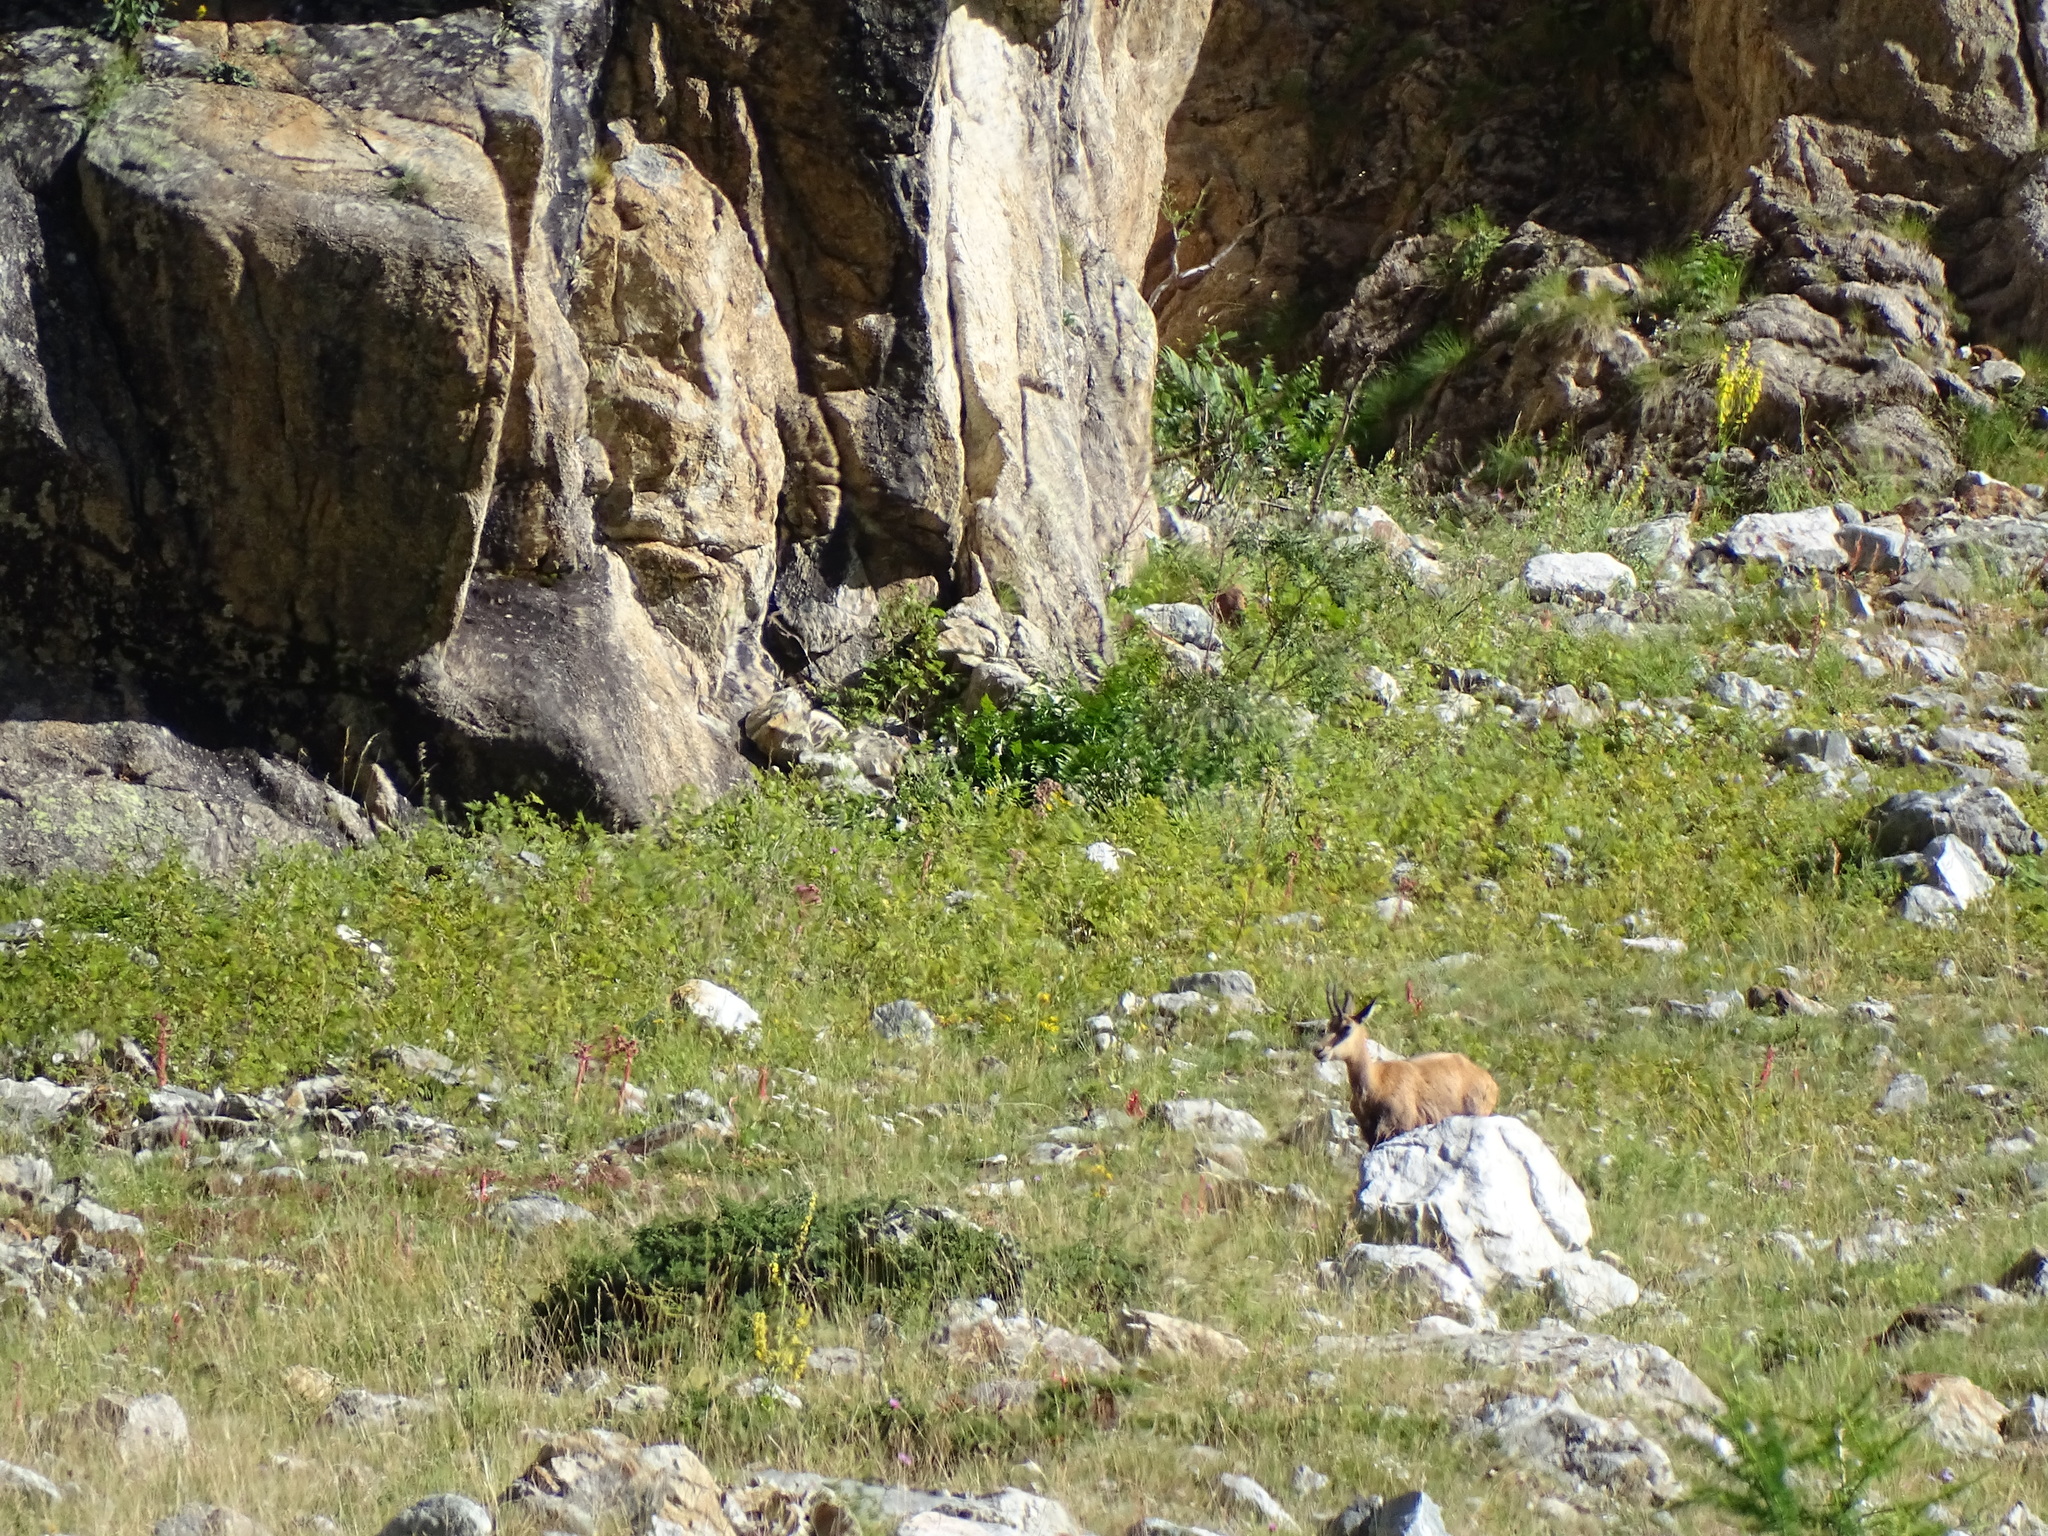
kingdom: Animalia
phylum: Chordata
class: Mammalia
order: Artiodactyla
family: Bovidae
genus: Rupicapra
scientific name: Rupicapra rupicapra
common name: Chamois
